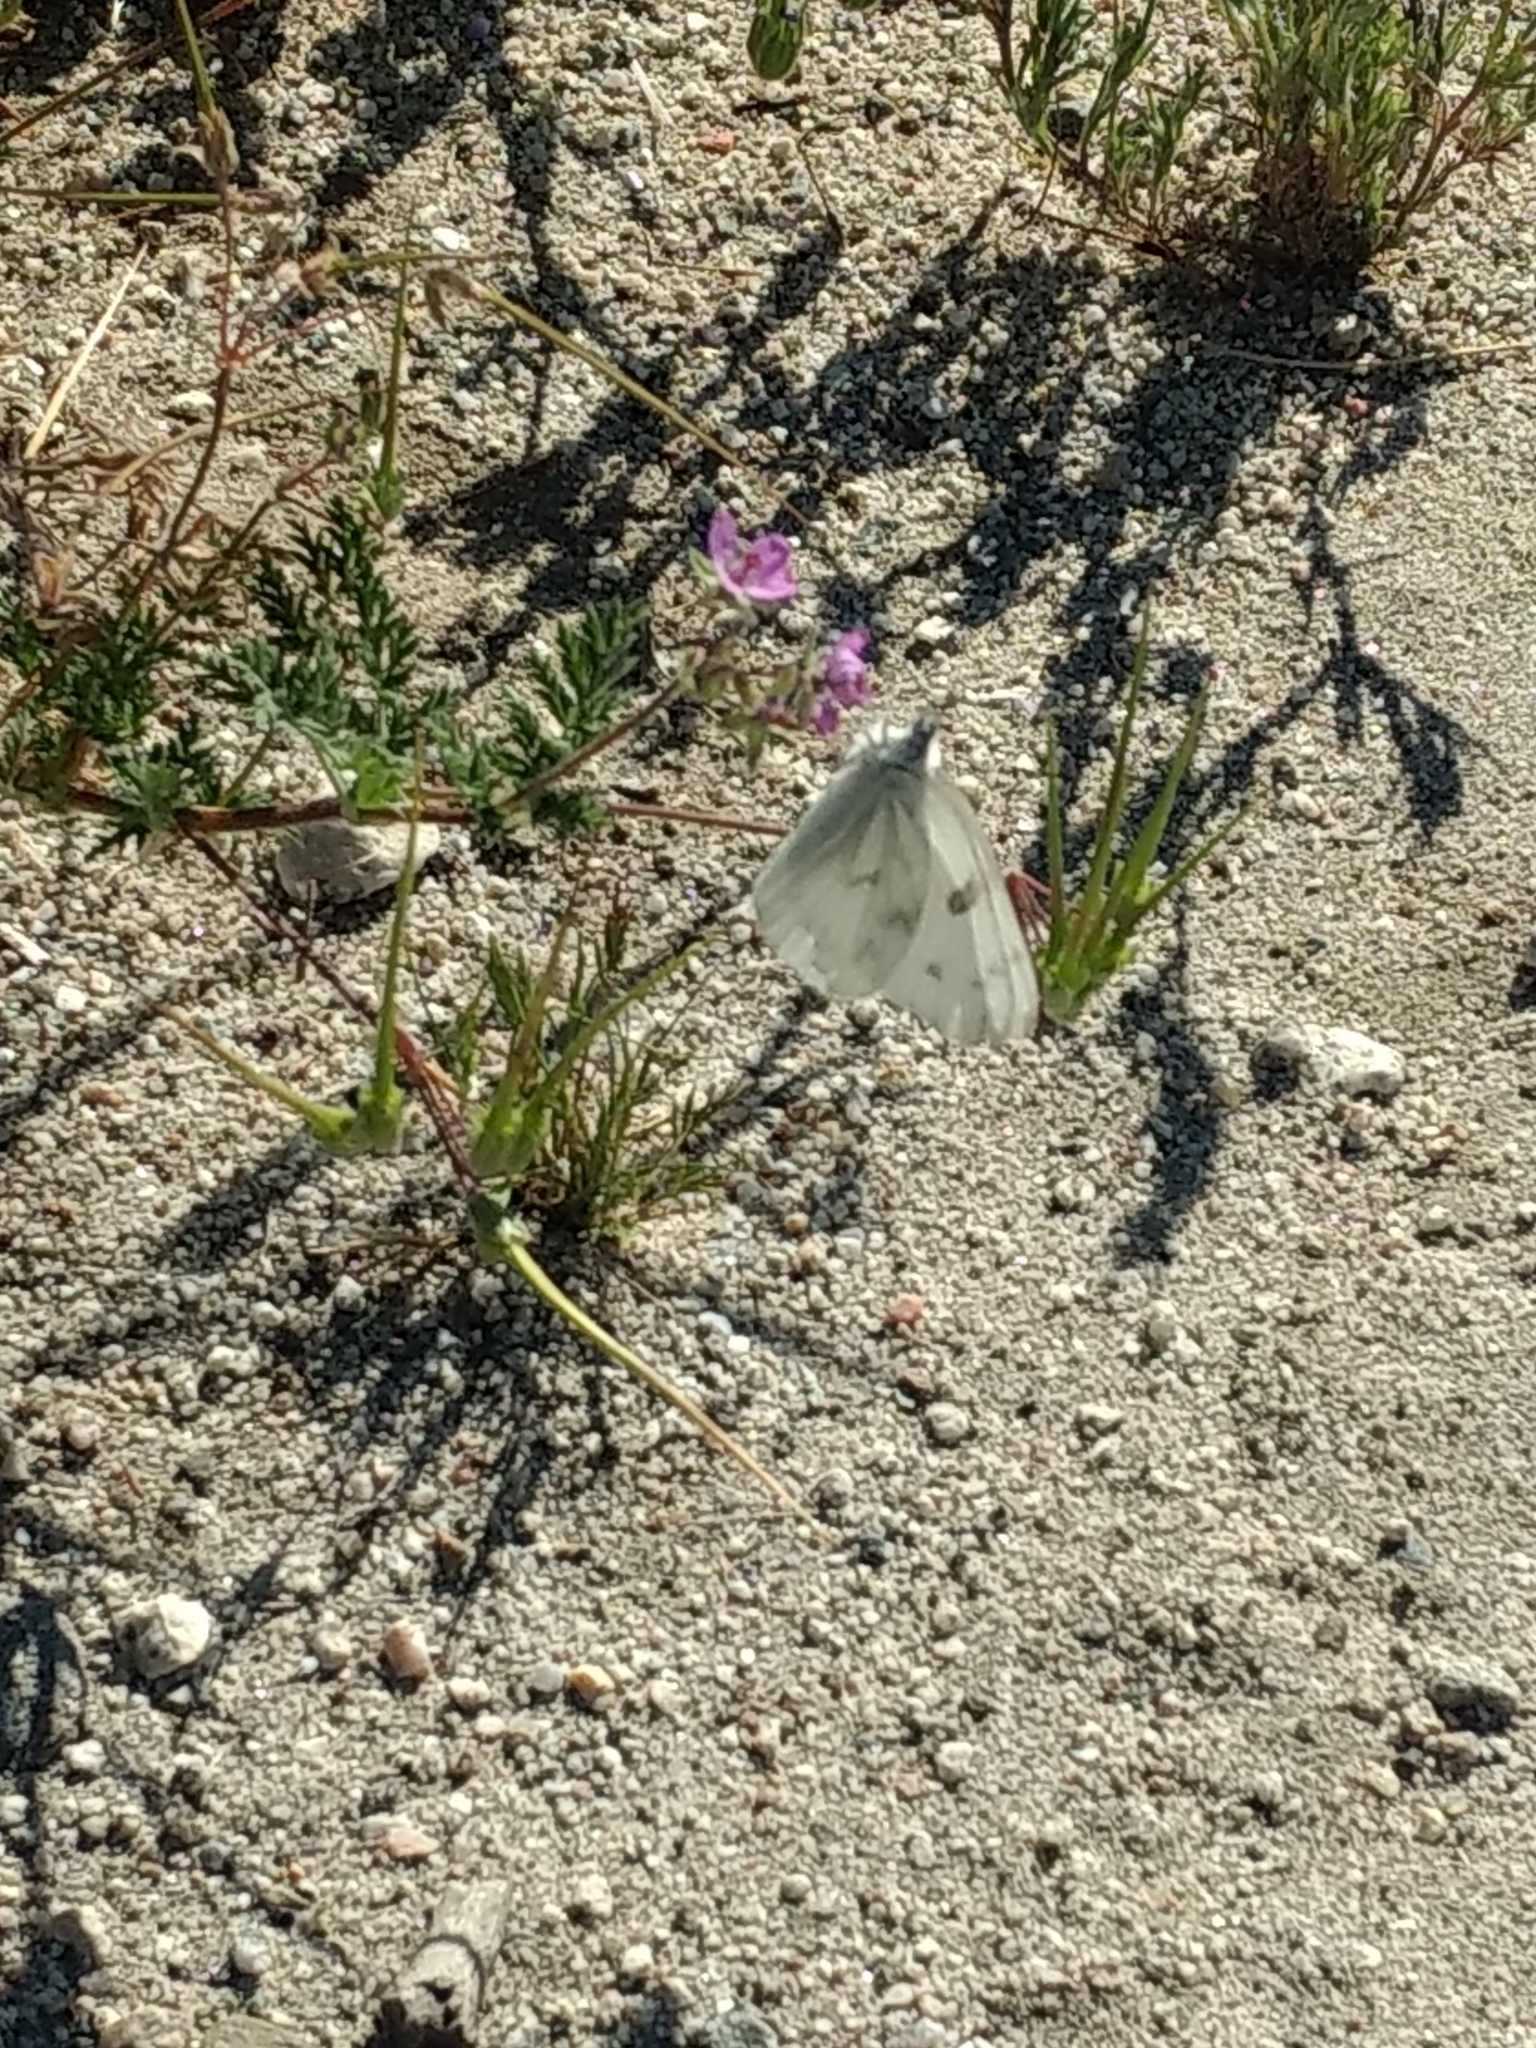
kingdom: Animalia
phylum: Arthropoda
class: Insecta
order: Lepidoptera
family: Pieridae
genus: Pontia
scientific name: Pontia protodice
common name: Checkered white
